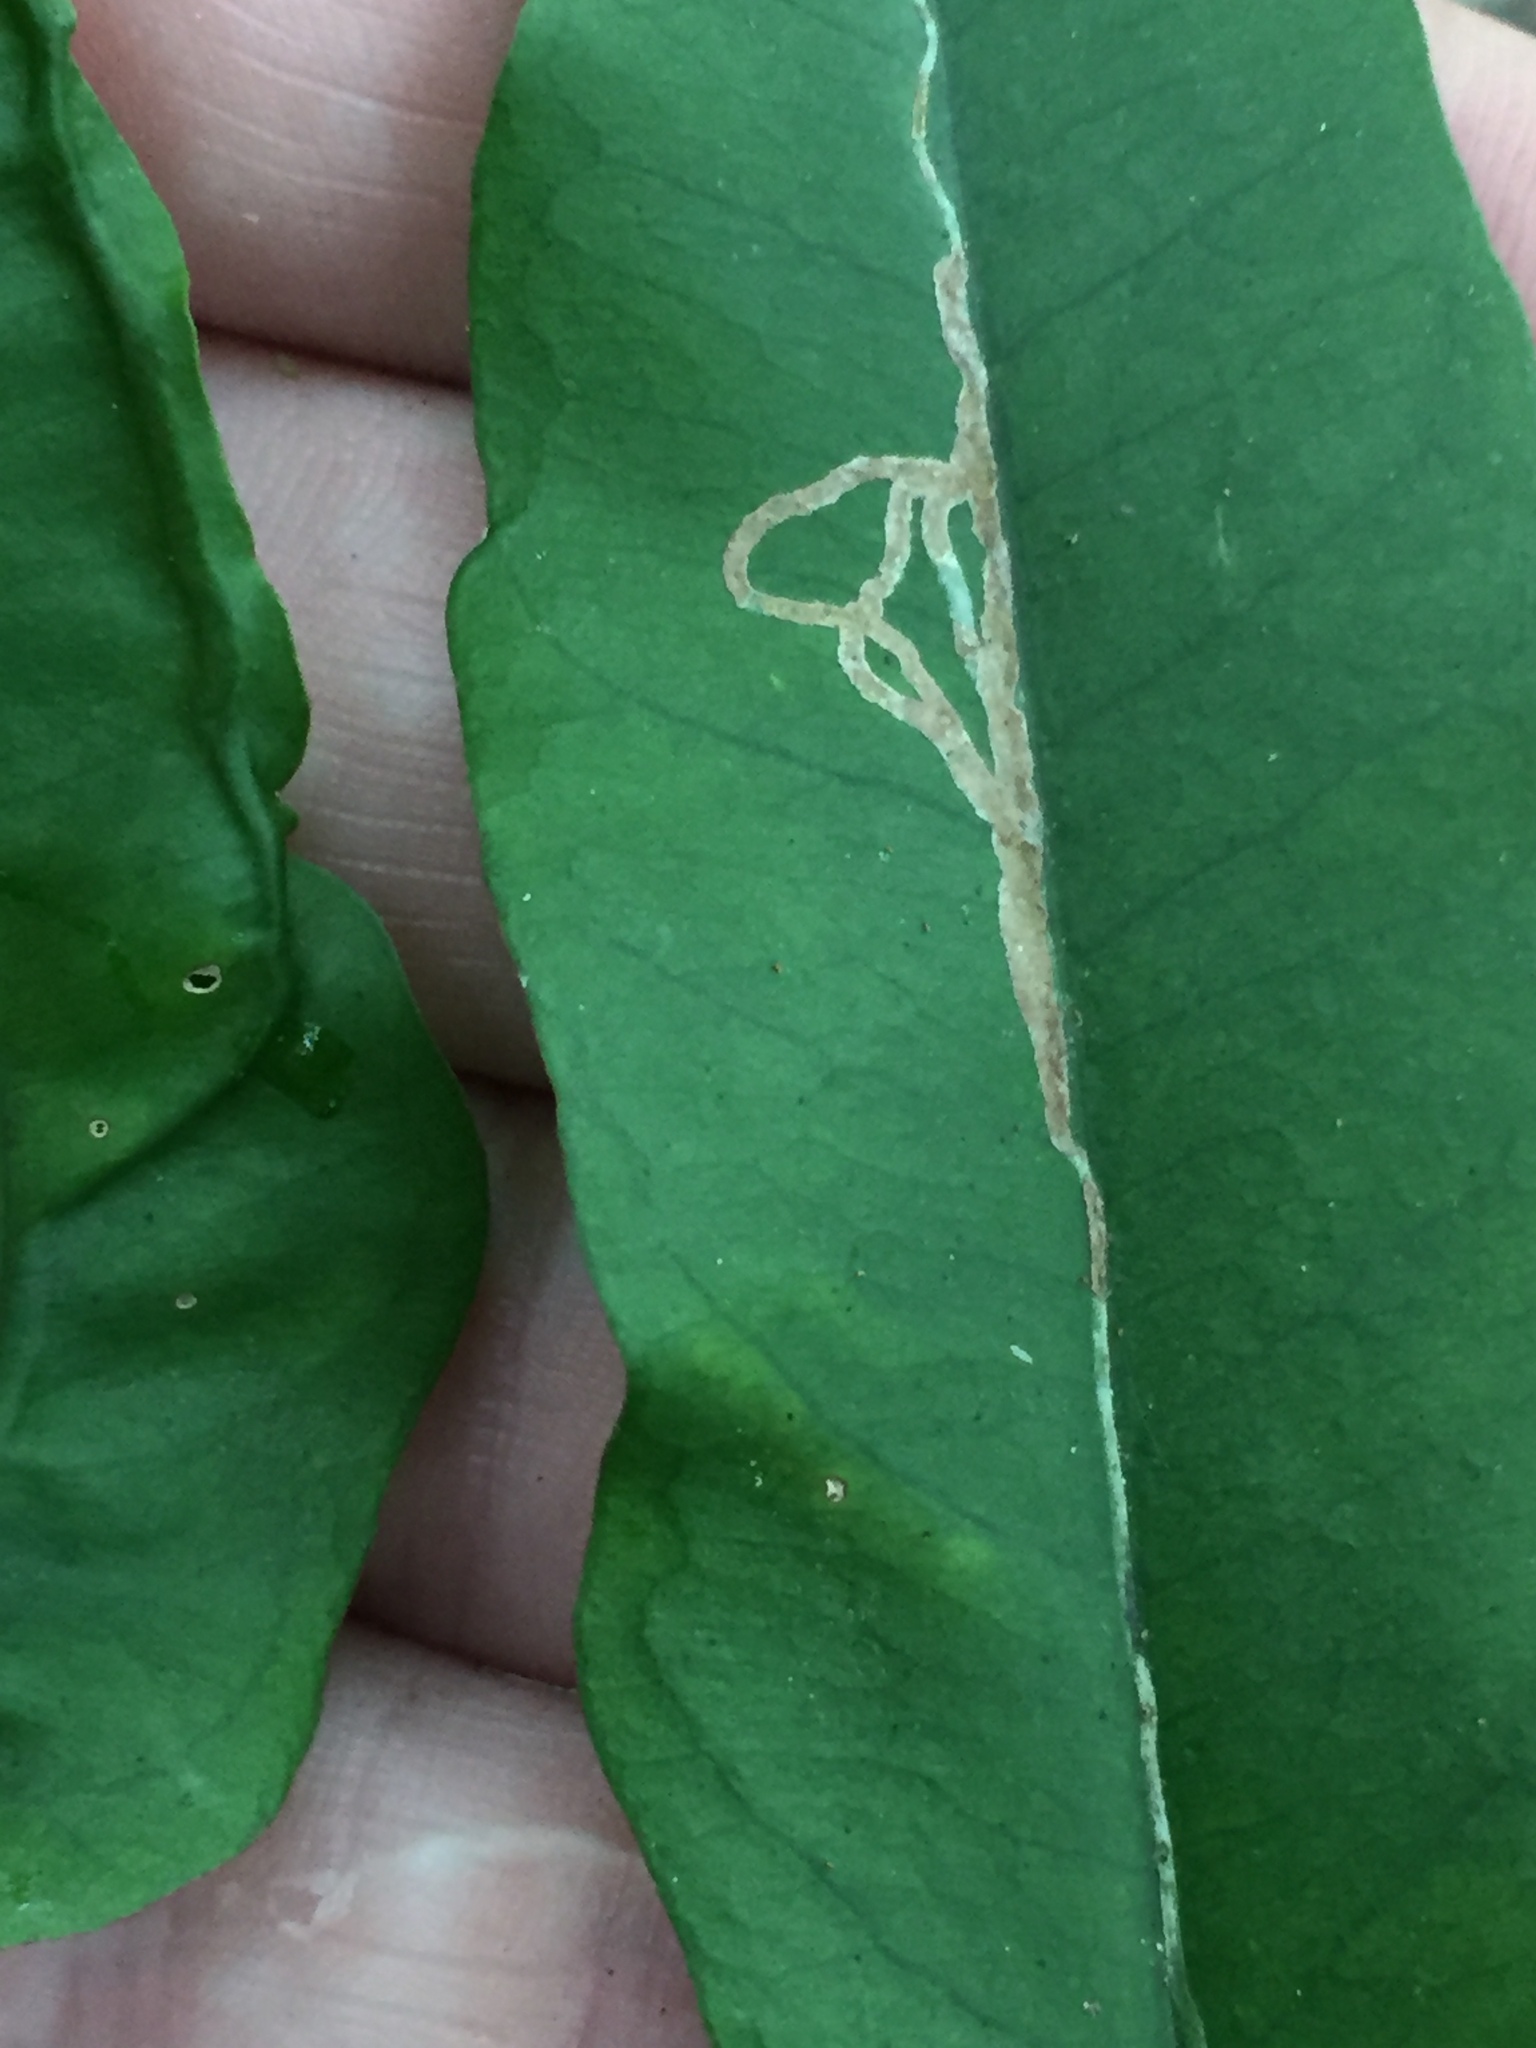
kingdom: Animalia
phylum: Arthropoda
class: Insecta
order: Lepidoptera
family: Gracillariidae
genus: Eumetriochroa
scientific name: Eumetriochroa aethalota
